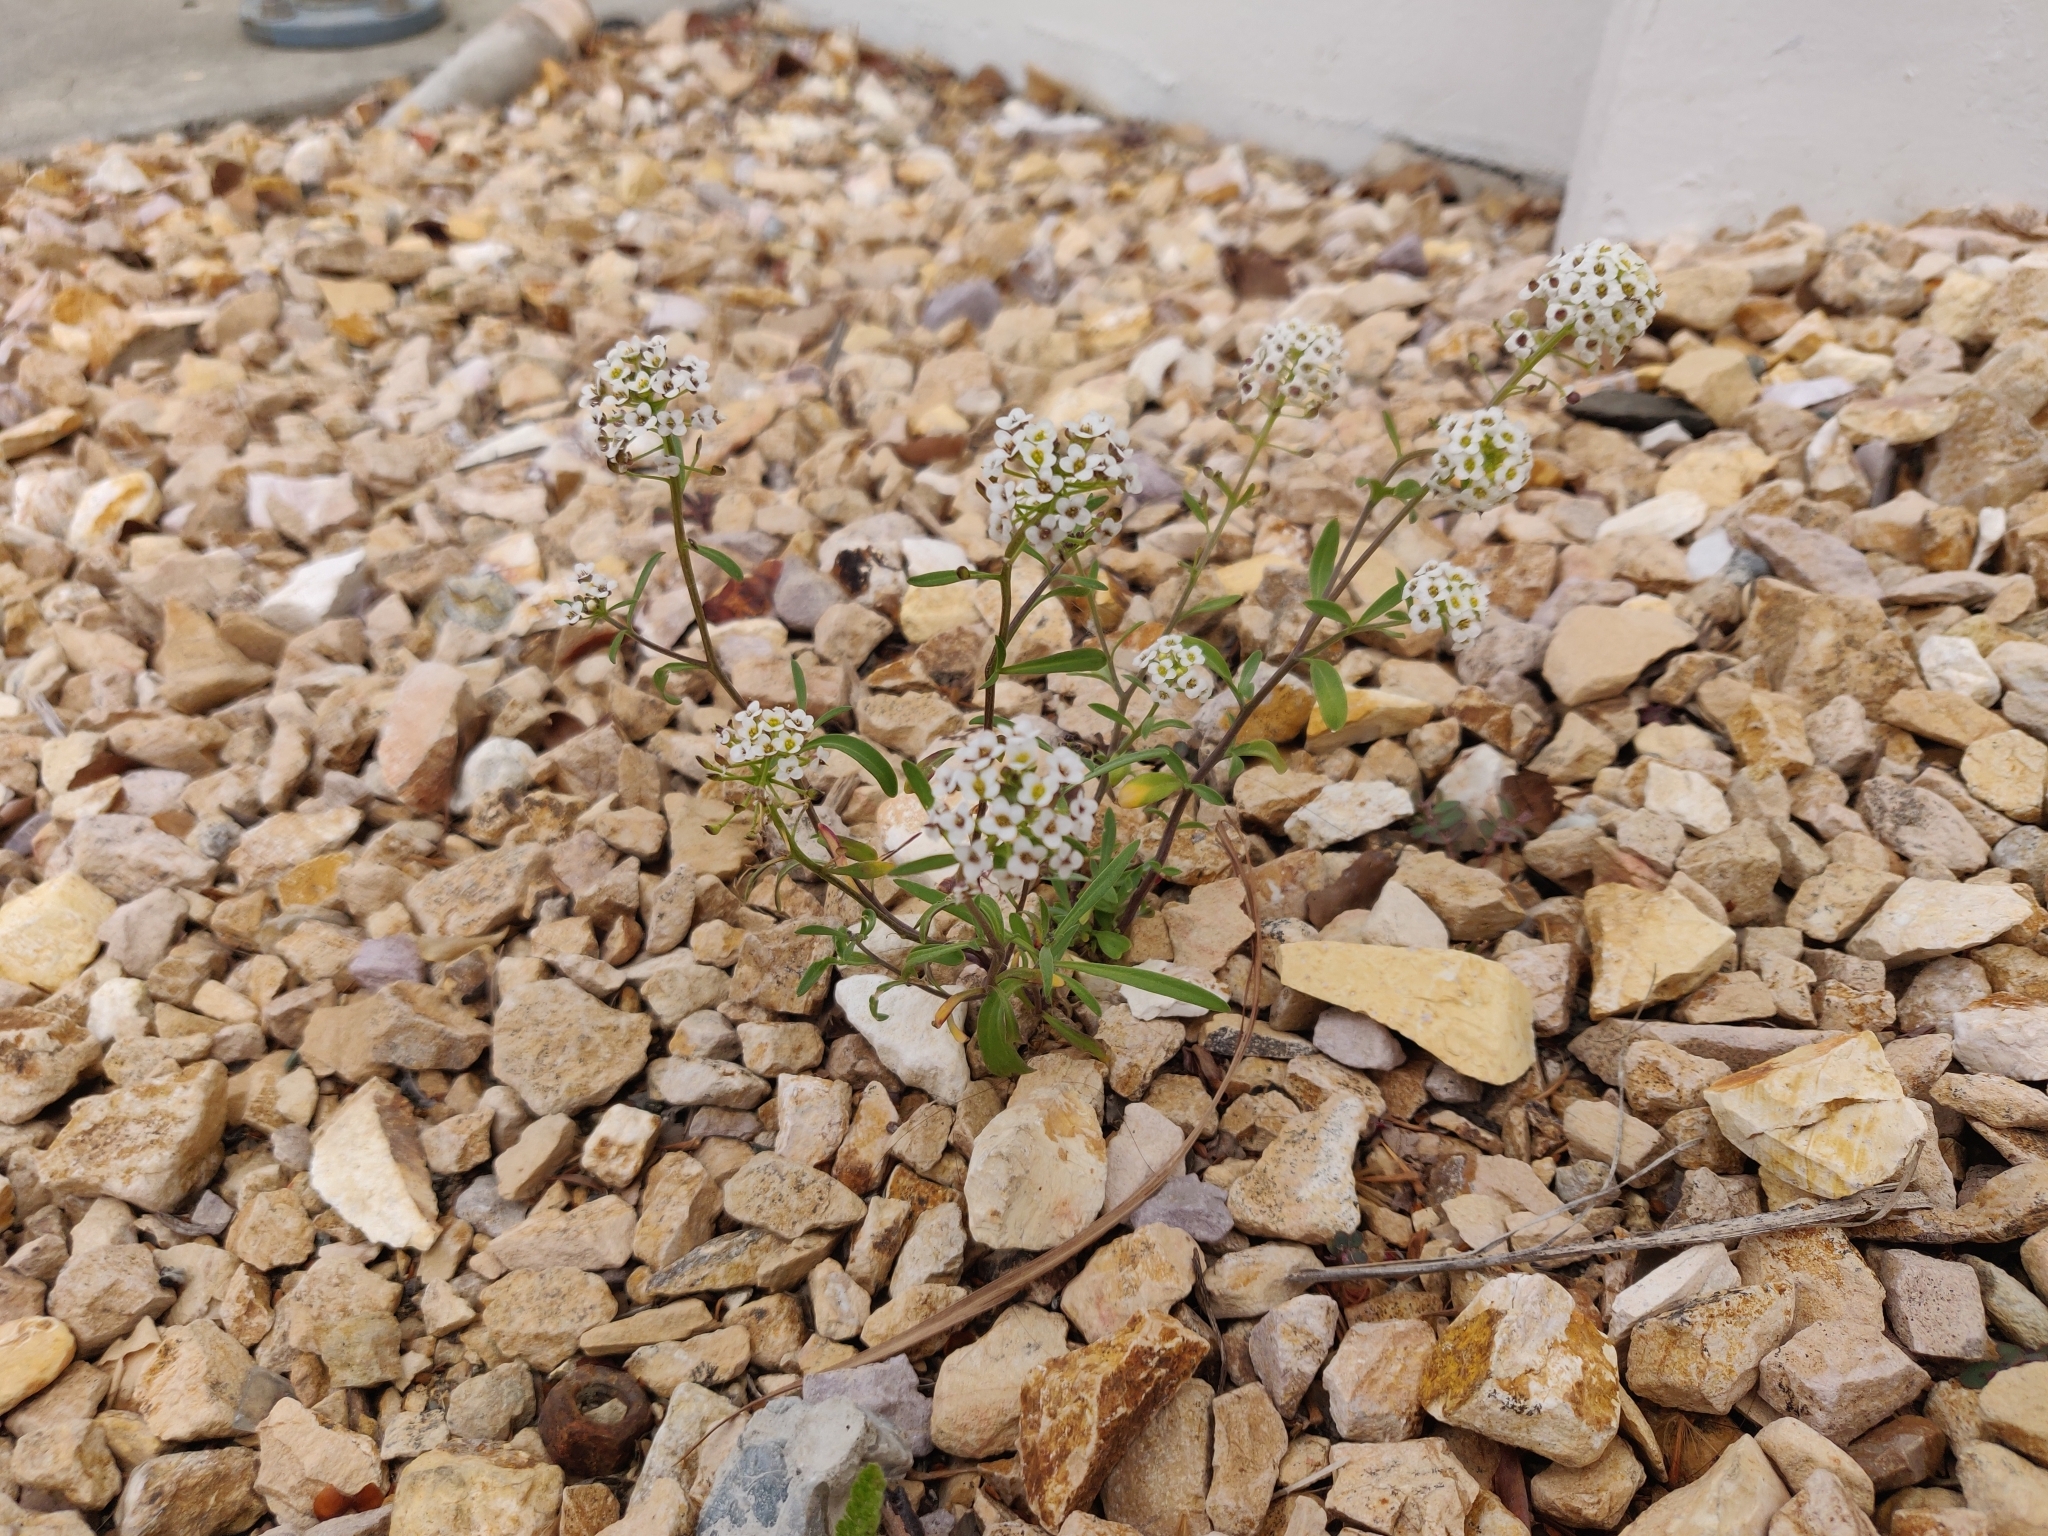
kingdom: Plantae
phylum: Tracheophyta
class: Magnoliopsida
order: Brassicales
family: Brassicaceae
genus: Lobularia
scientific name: Lobularia maritima
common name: Sweet alison
